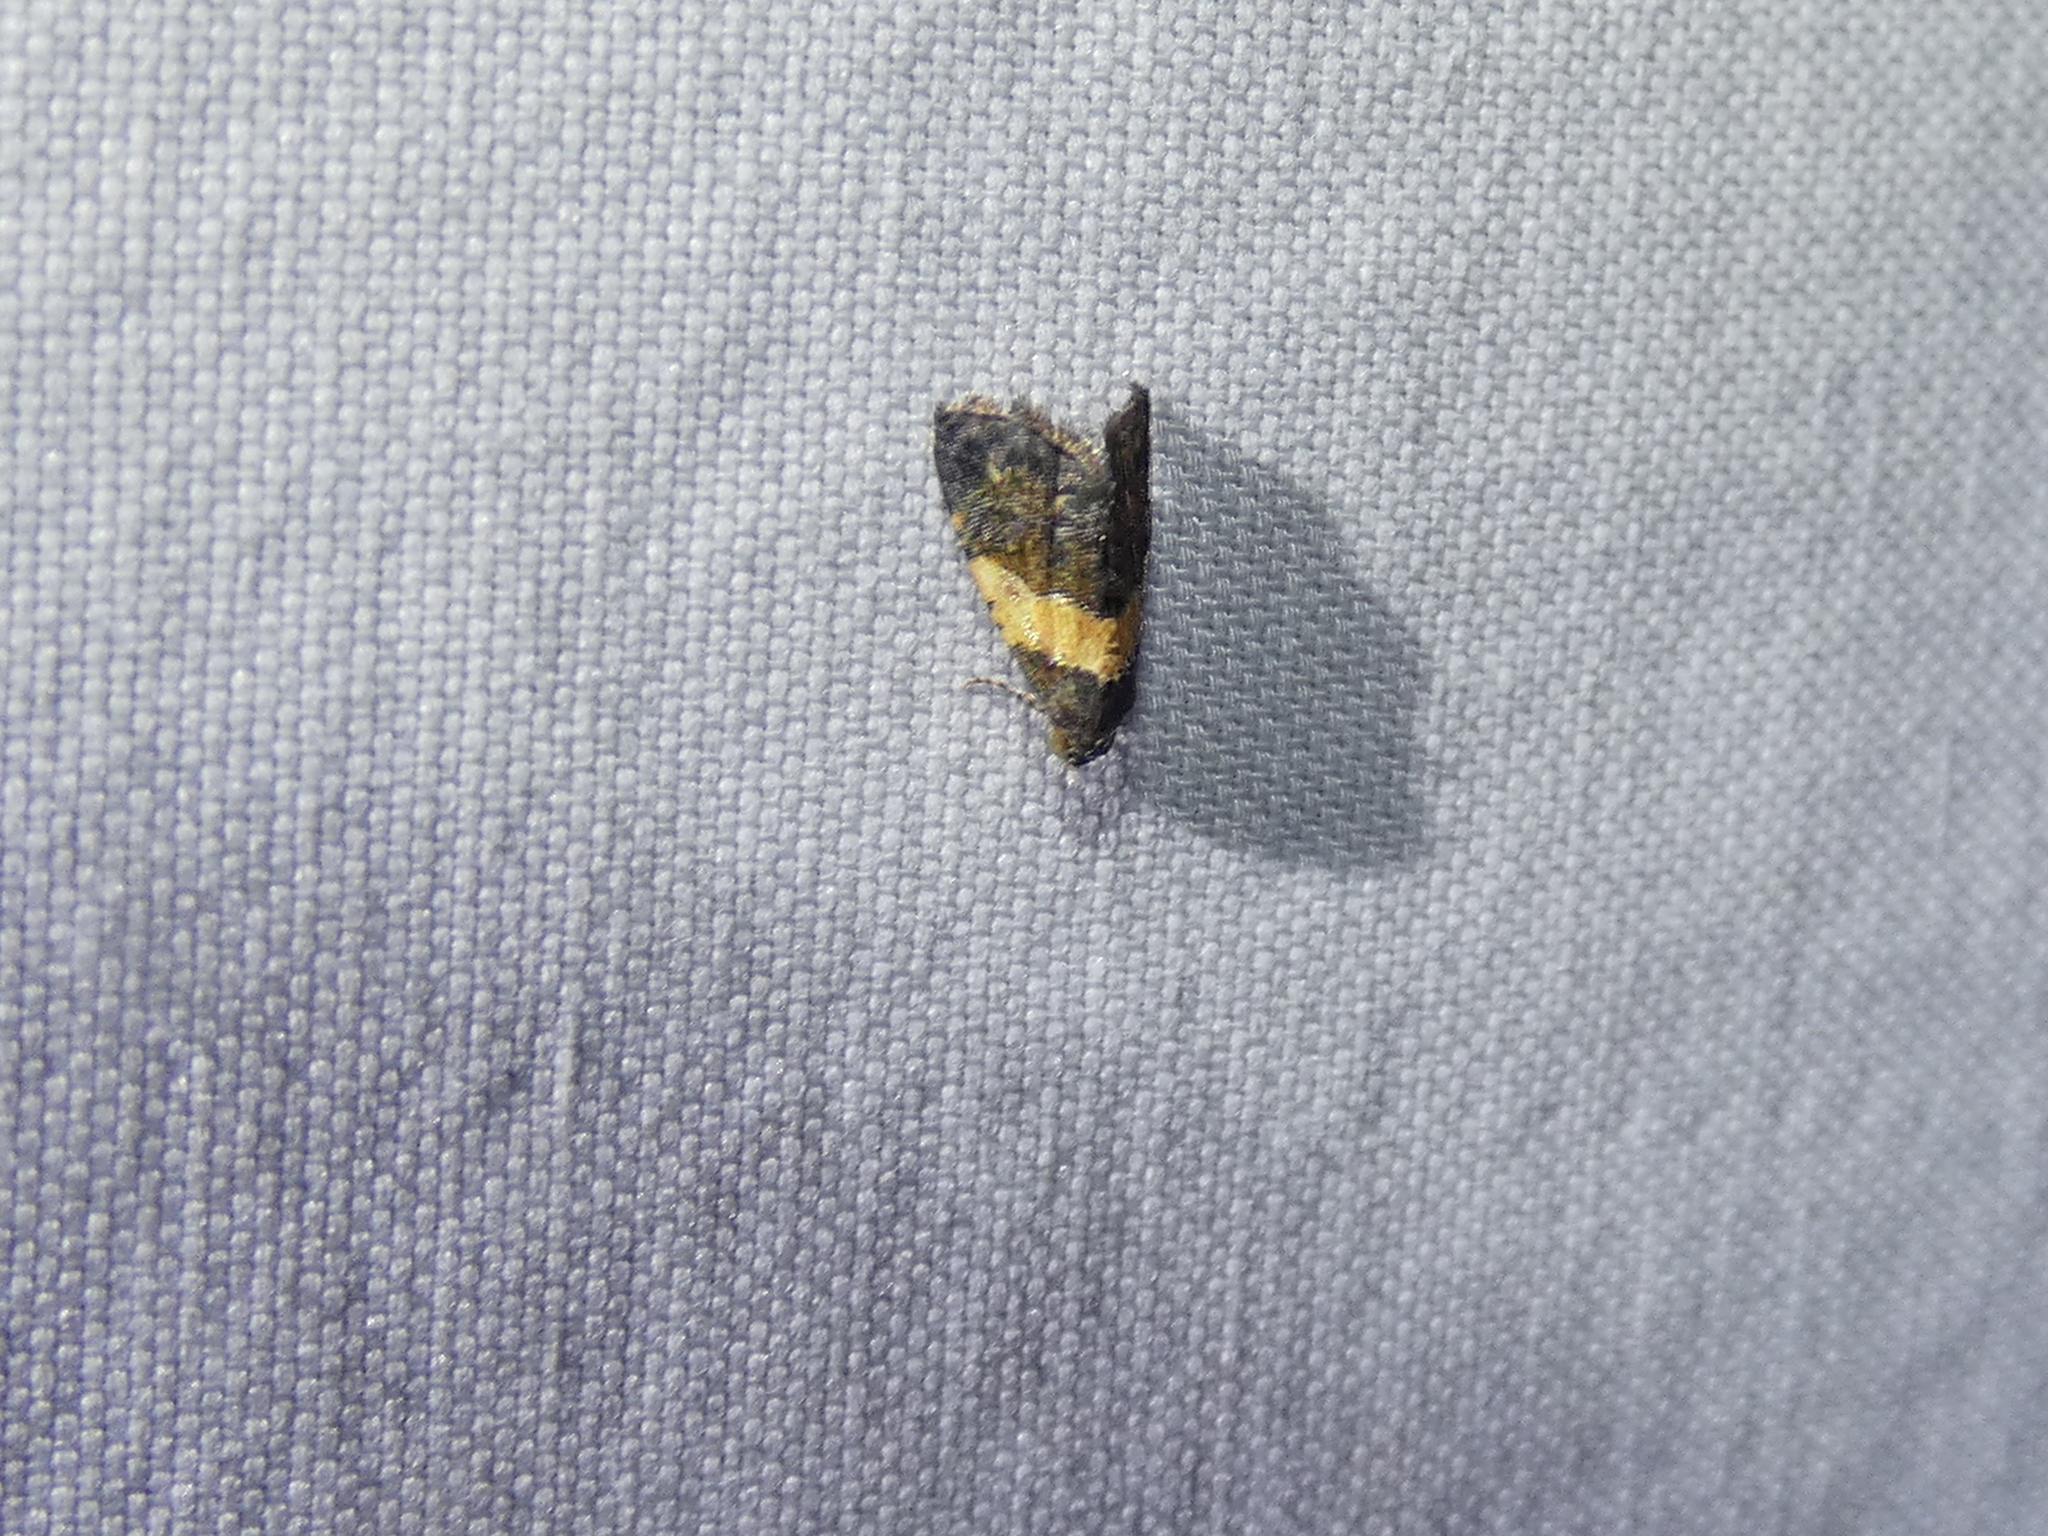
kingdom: Animalia
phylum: Arthropoda
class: Insecta
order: Lepidoptera
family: Noctuidae
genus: Tripudia
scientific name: Tripudia flavofasciata
